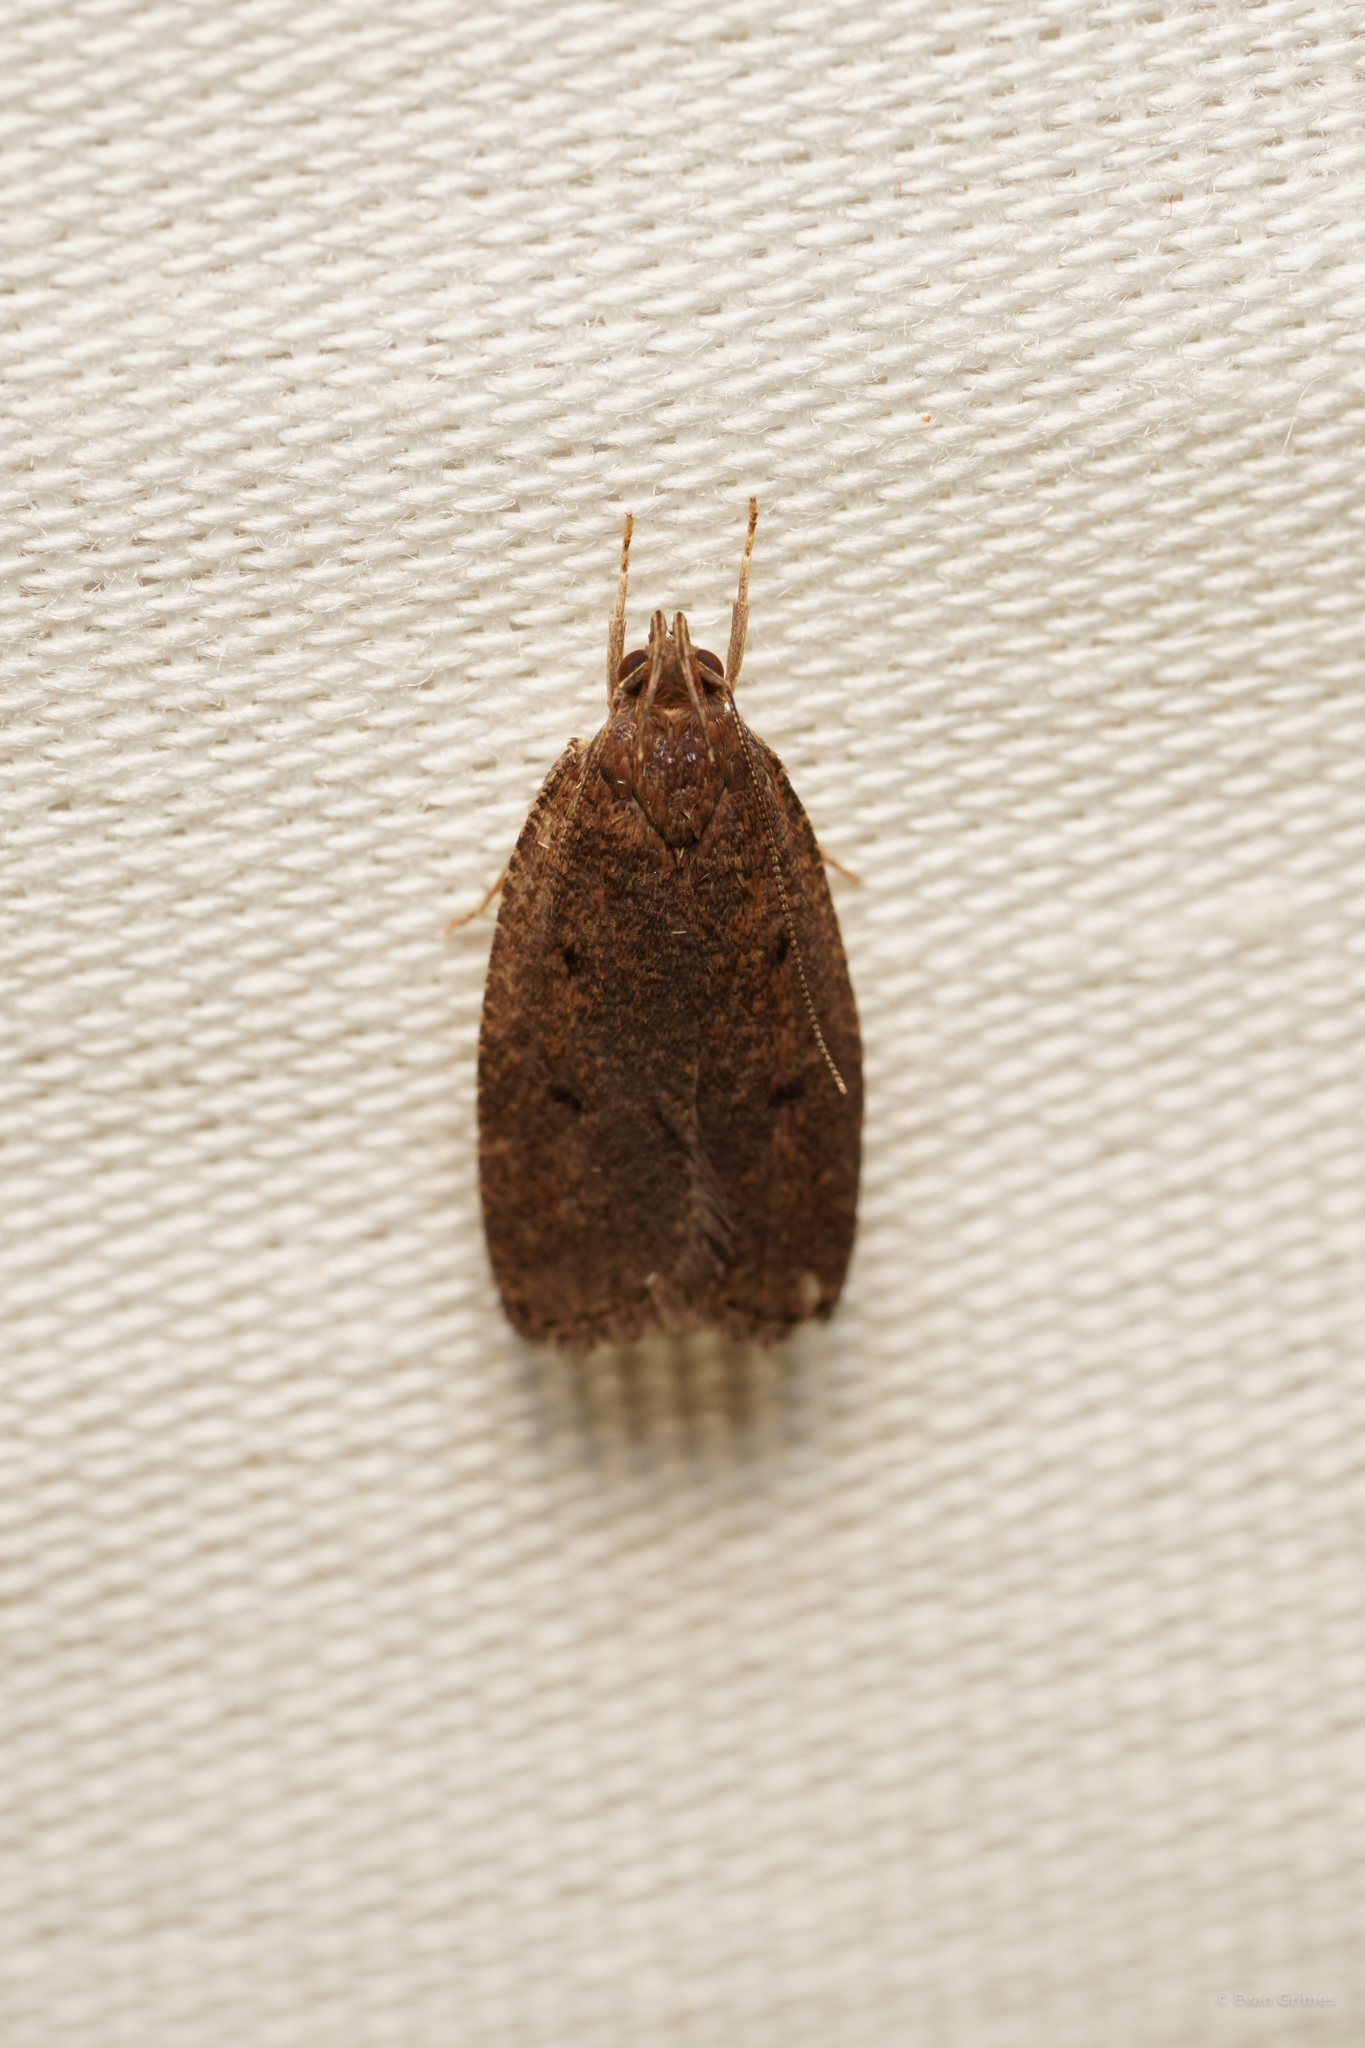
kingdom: Animalia
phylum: Arthropoda
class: Insecta
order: Lepidoptera
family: Depressariidae
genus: Psilocorsis
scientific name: Psilocorsis reflexella
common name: Dotted leaftier moth
